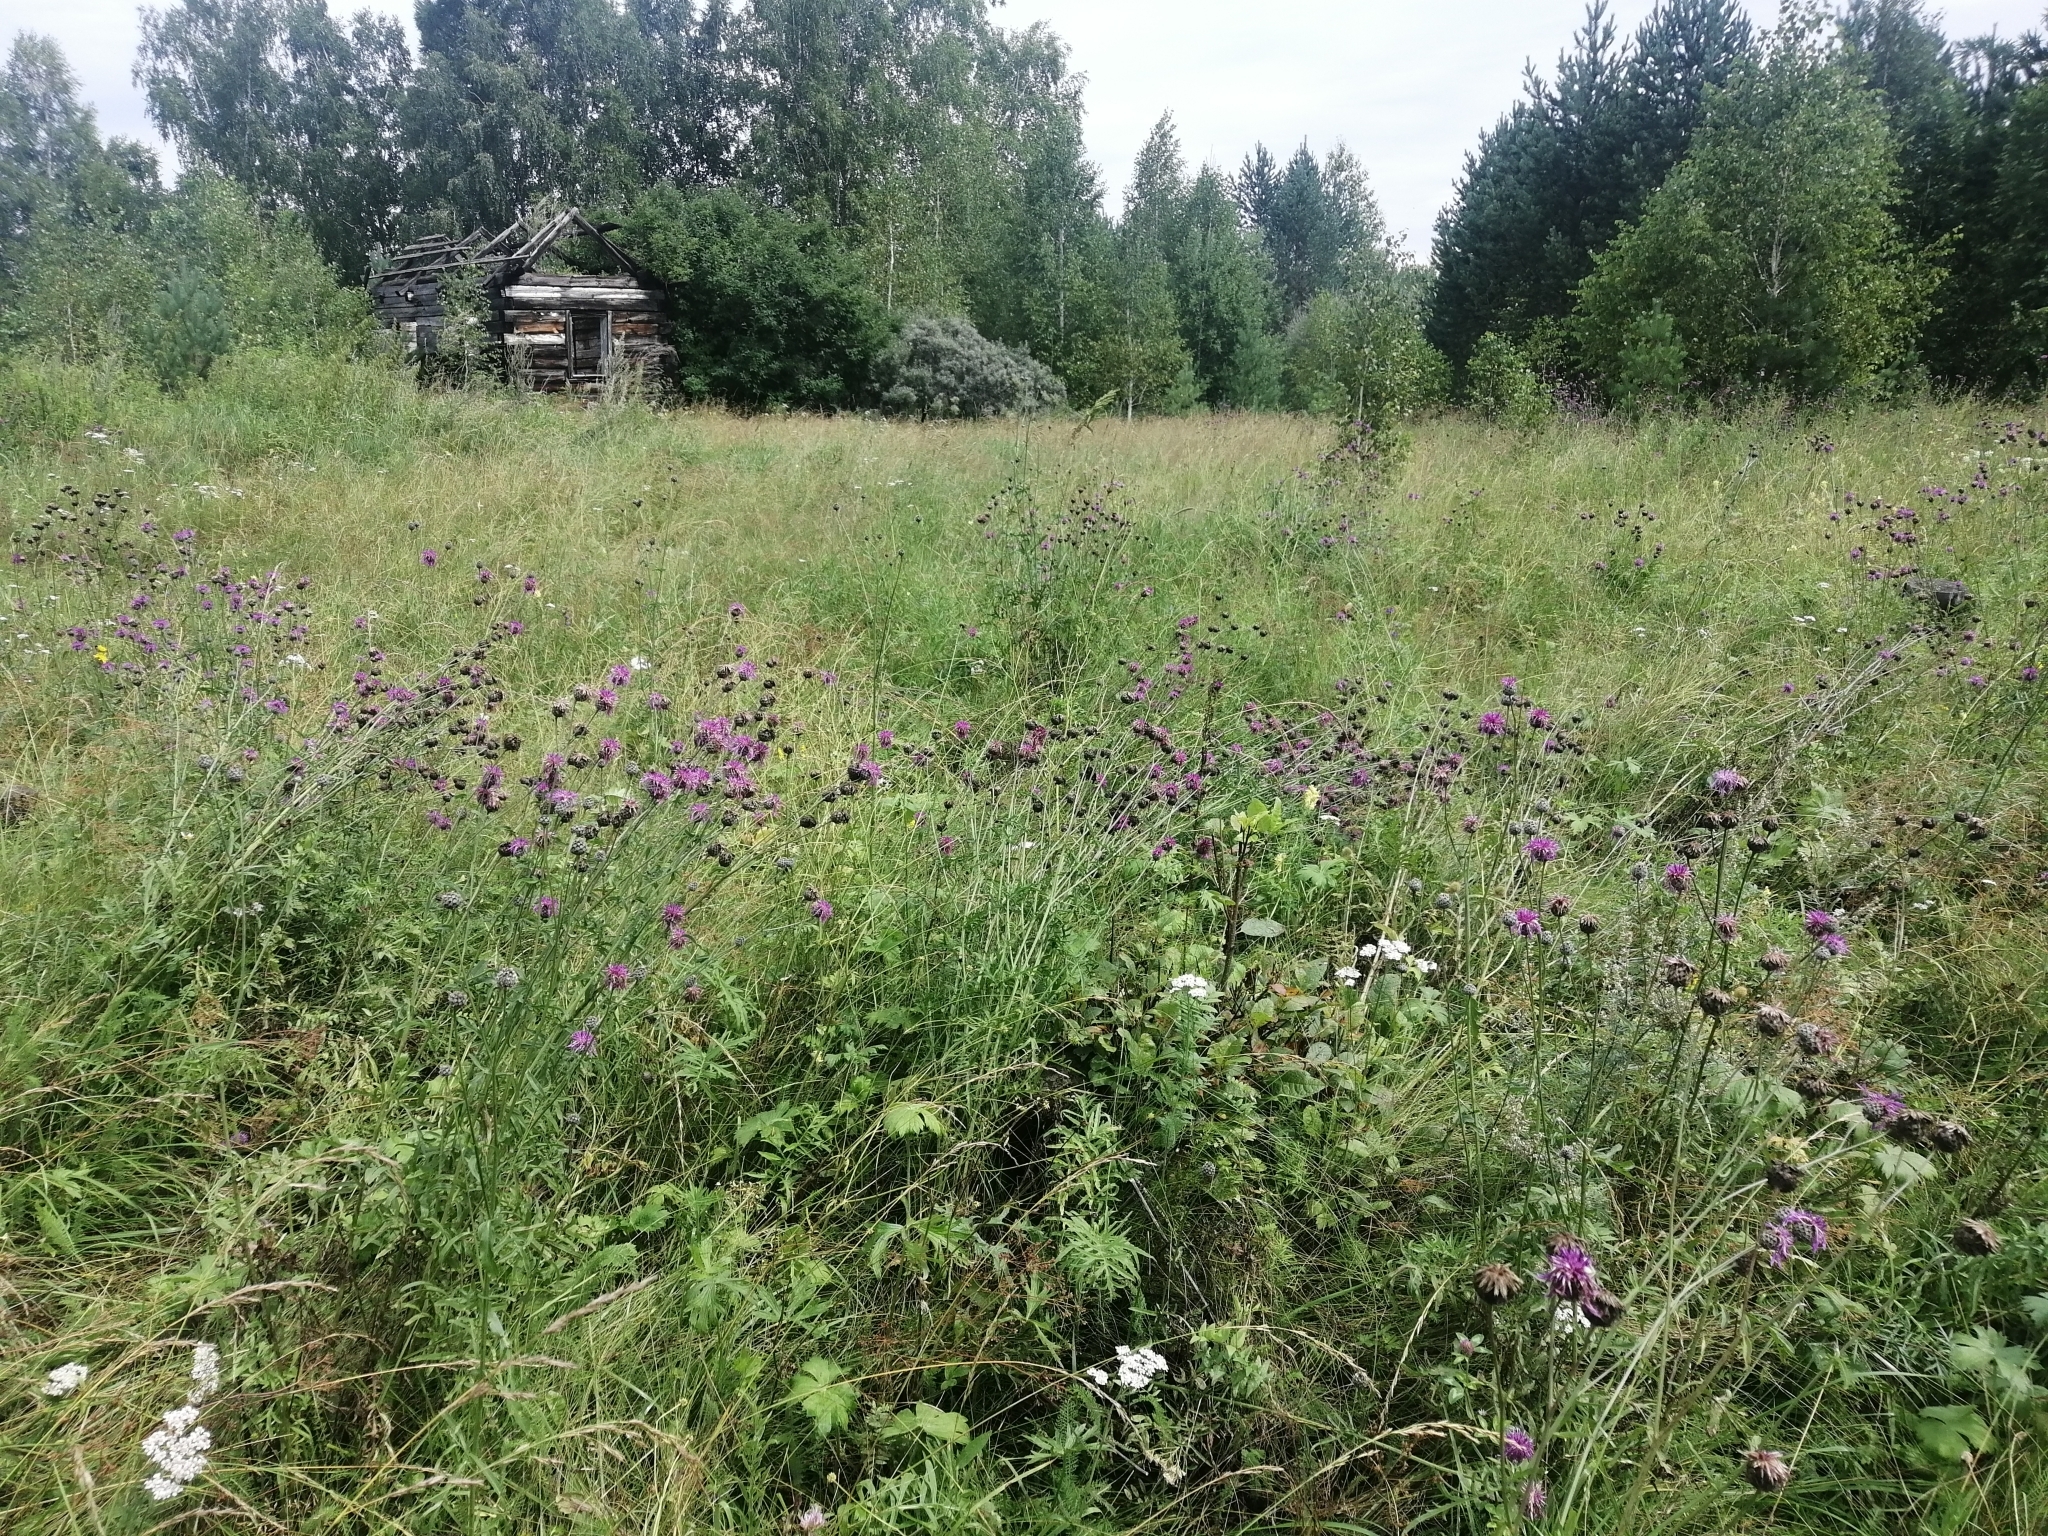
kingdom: Plantae
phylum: Tracheophyta
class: Magnoliopsida
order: Asterales
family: Asteraceae
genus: Centaurea
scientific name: Centaurea scabiosa
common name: Greater knapweed
